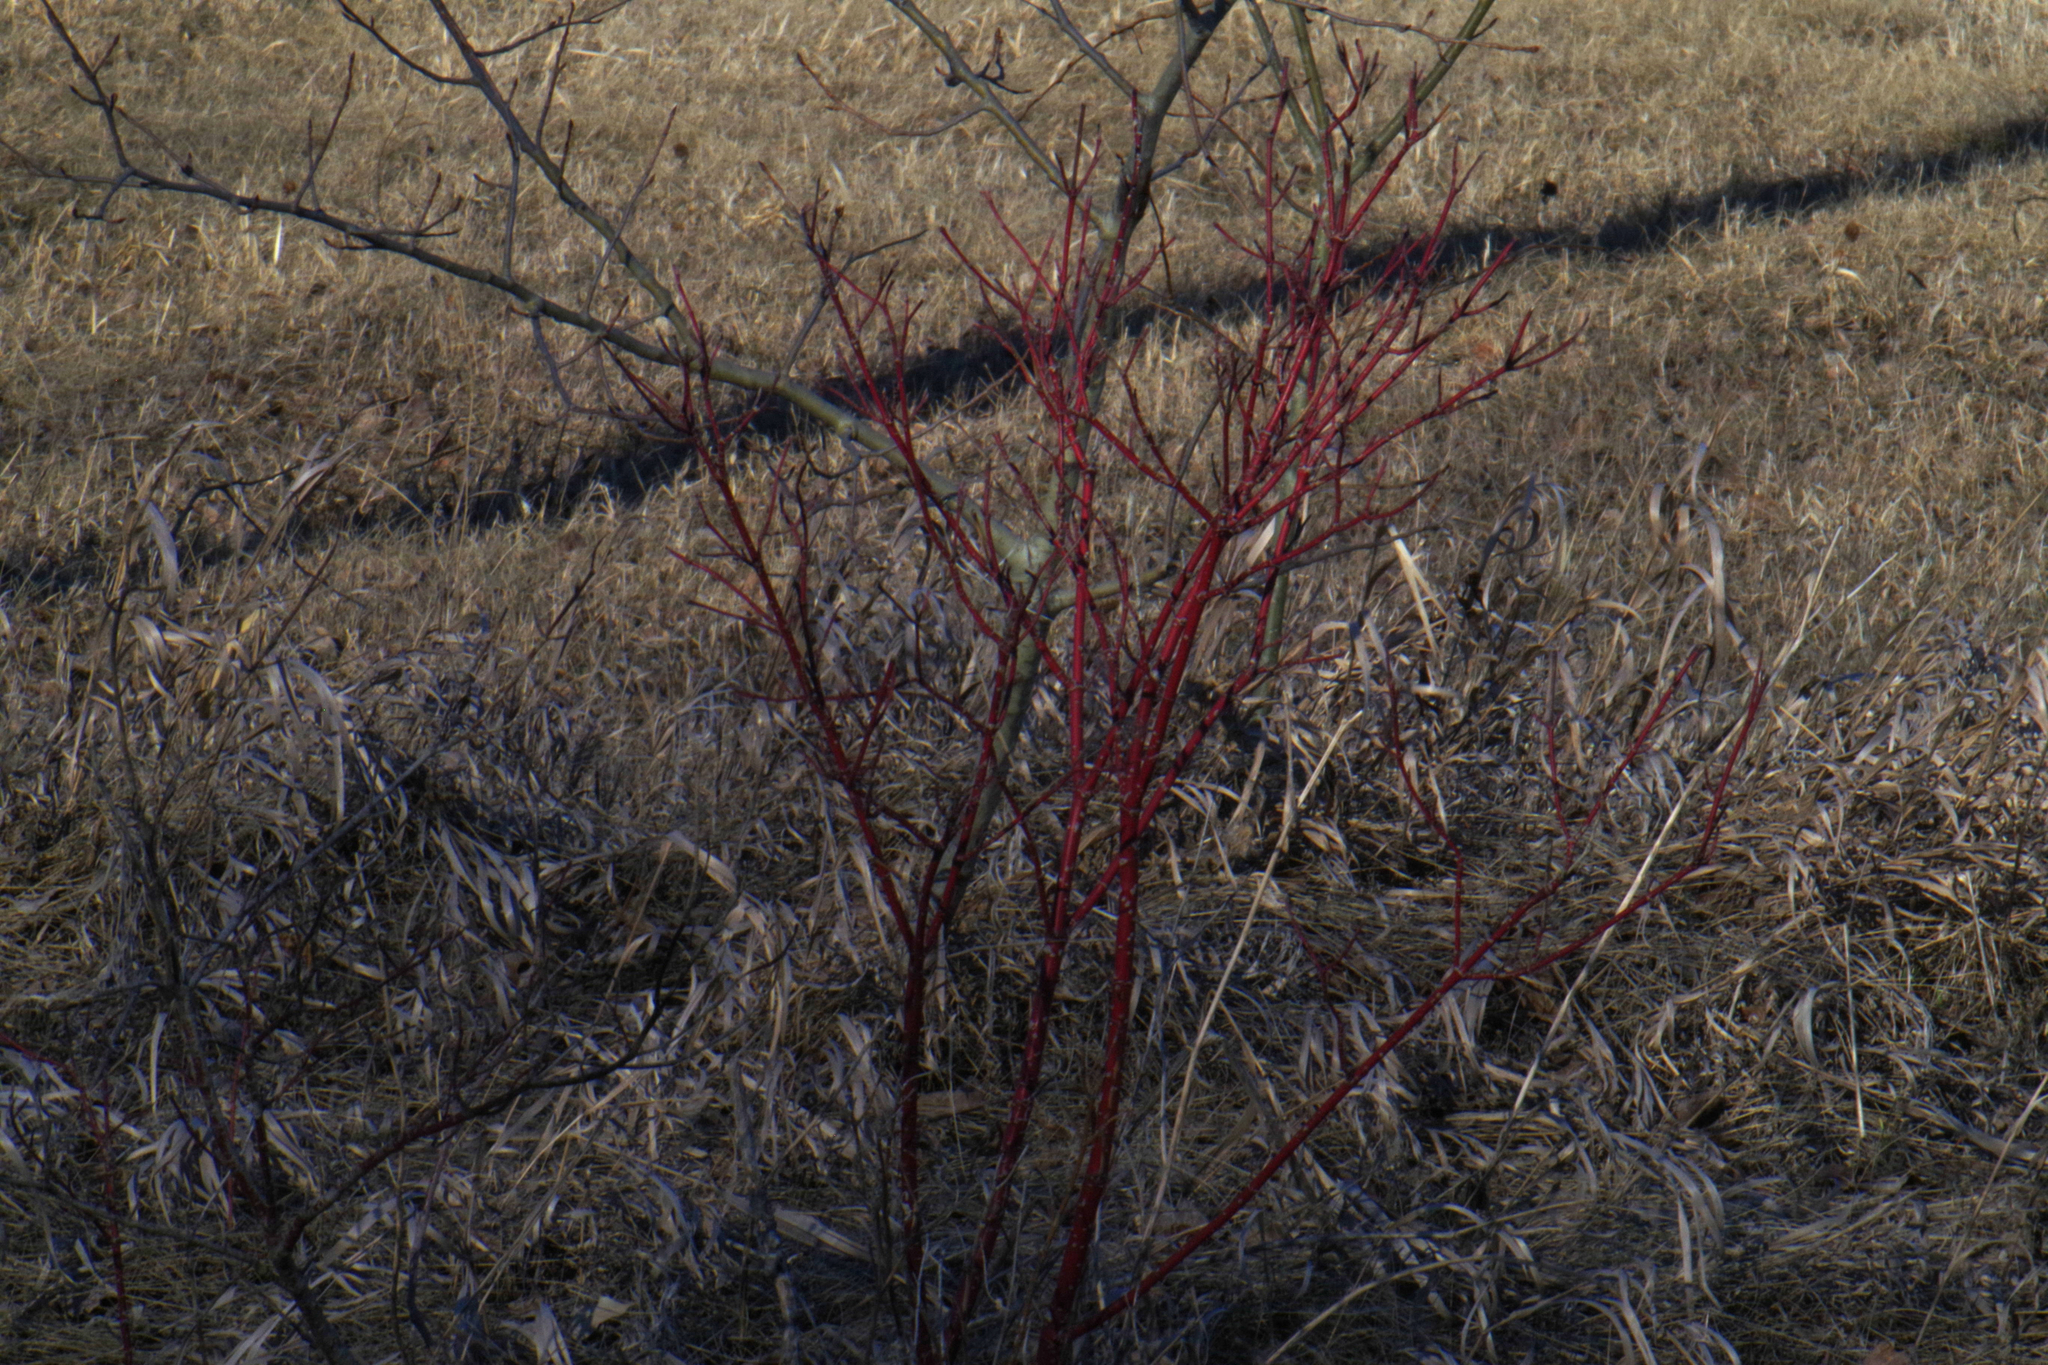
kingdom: Plantae
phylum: Tracheophyta
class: Magnoliopsida
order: Cornales
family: Cornaceae
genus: Cornus
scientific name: Cornus sericea
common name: Red-osier dogwood
